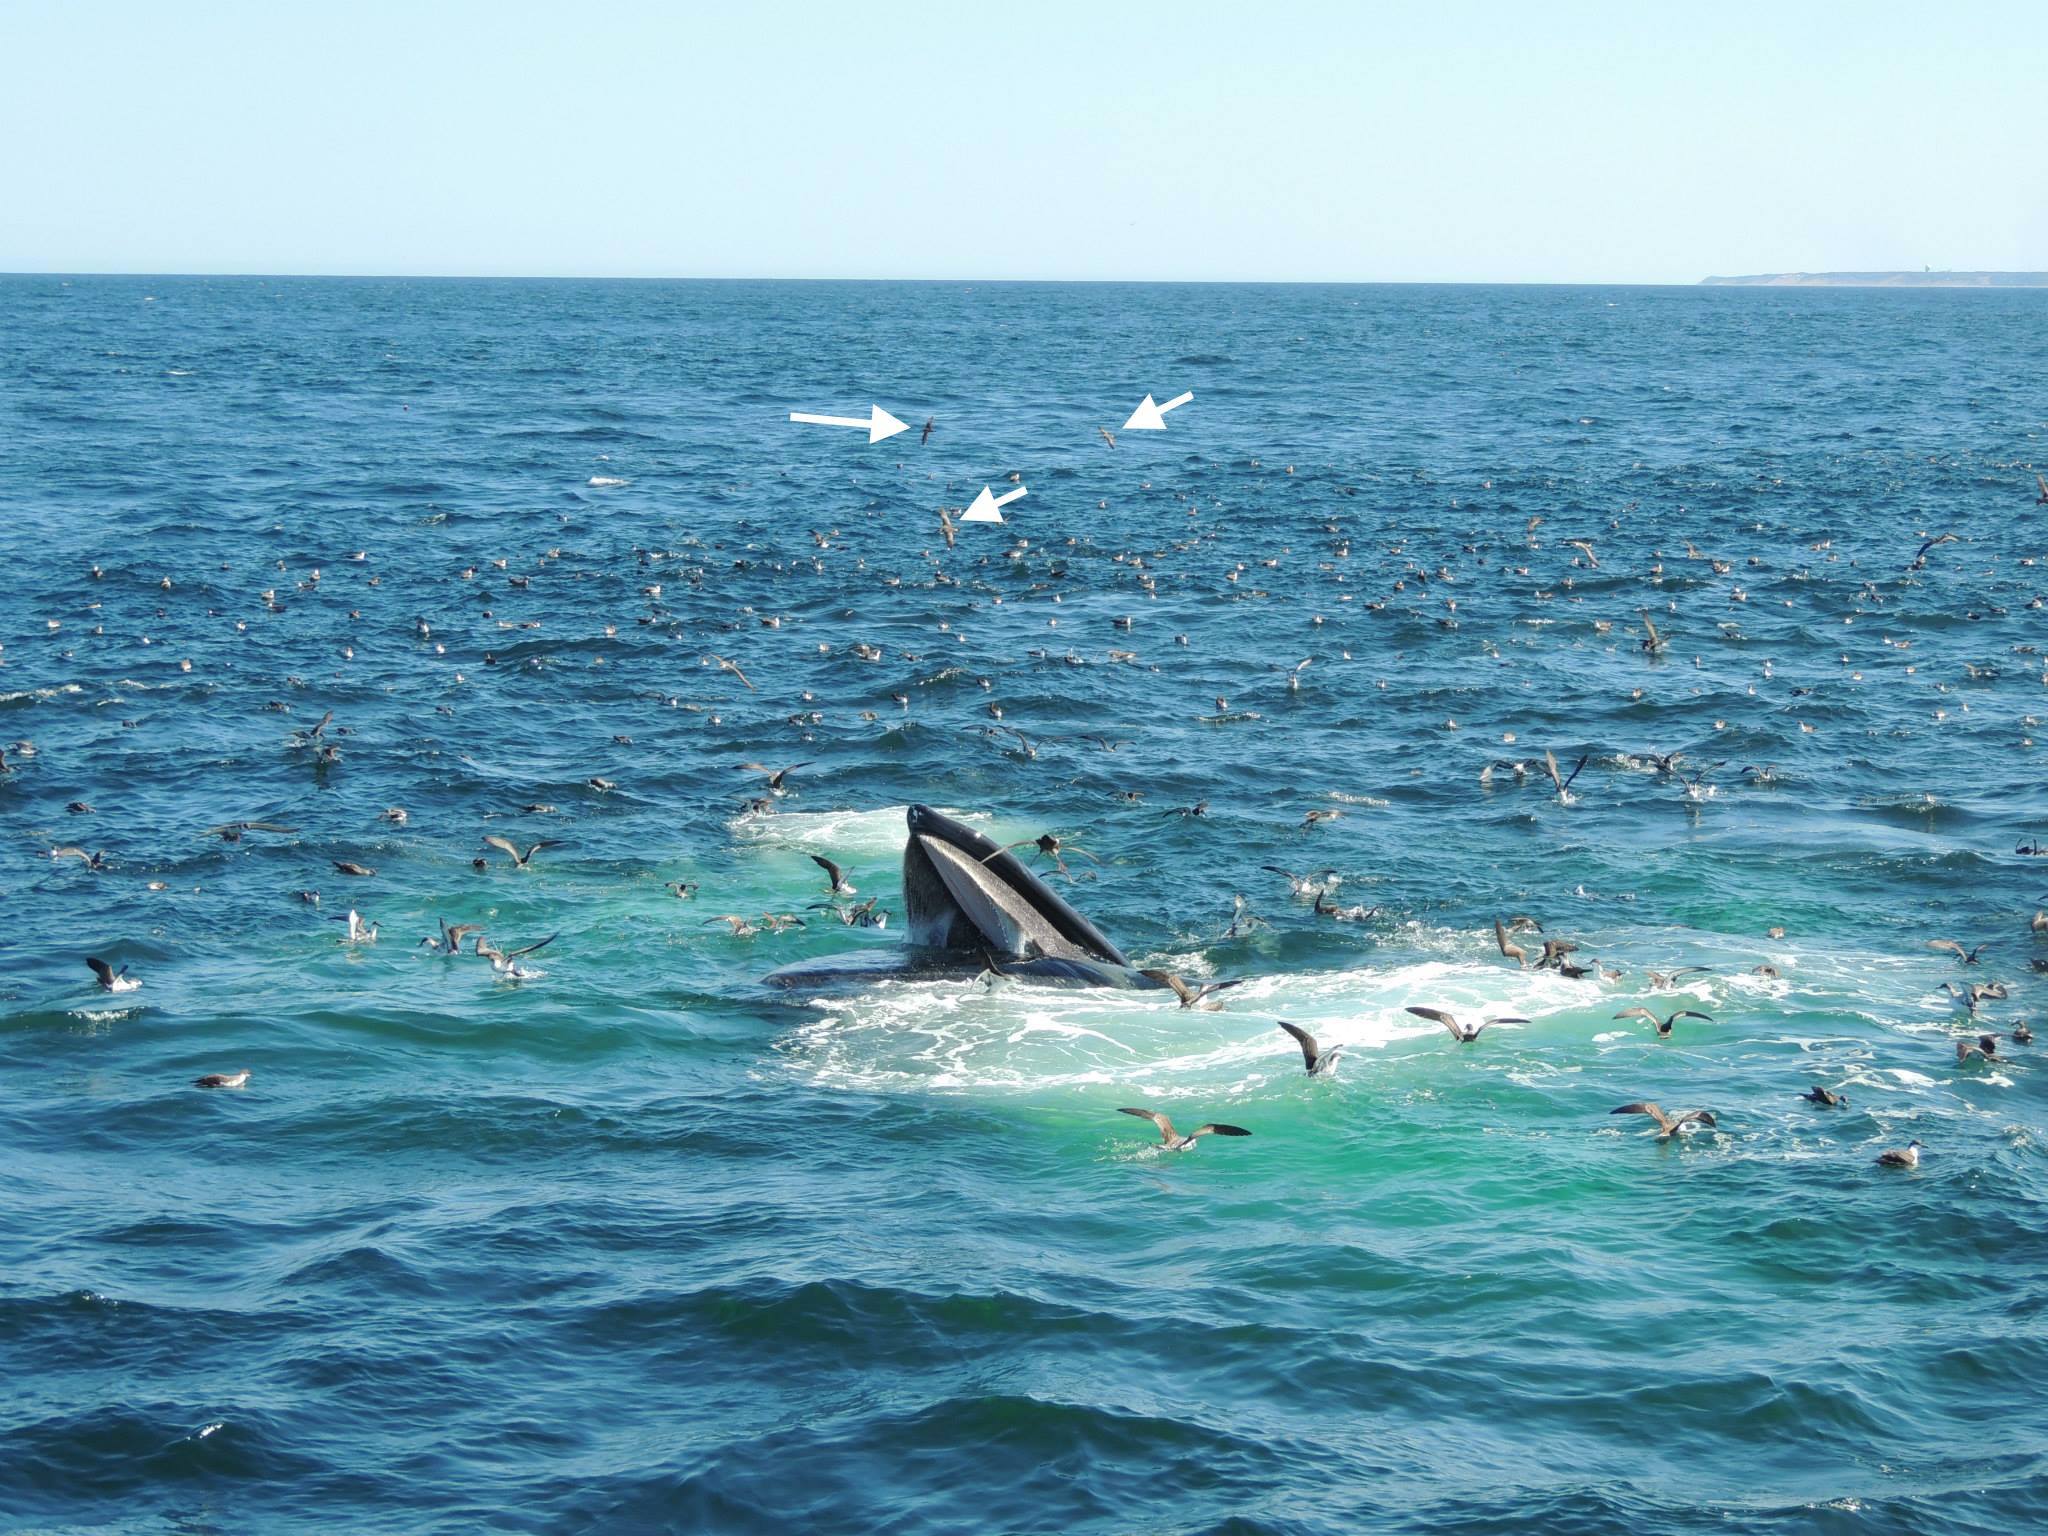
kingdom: Animalia
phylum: Chordata
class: Mammalia
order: Cetacea
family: Balaenopteridae
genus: Megaptera
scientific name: Megaptera novaeangliae
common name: Humpback whale
